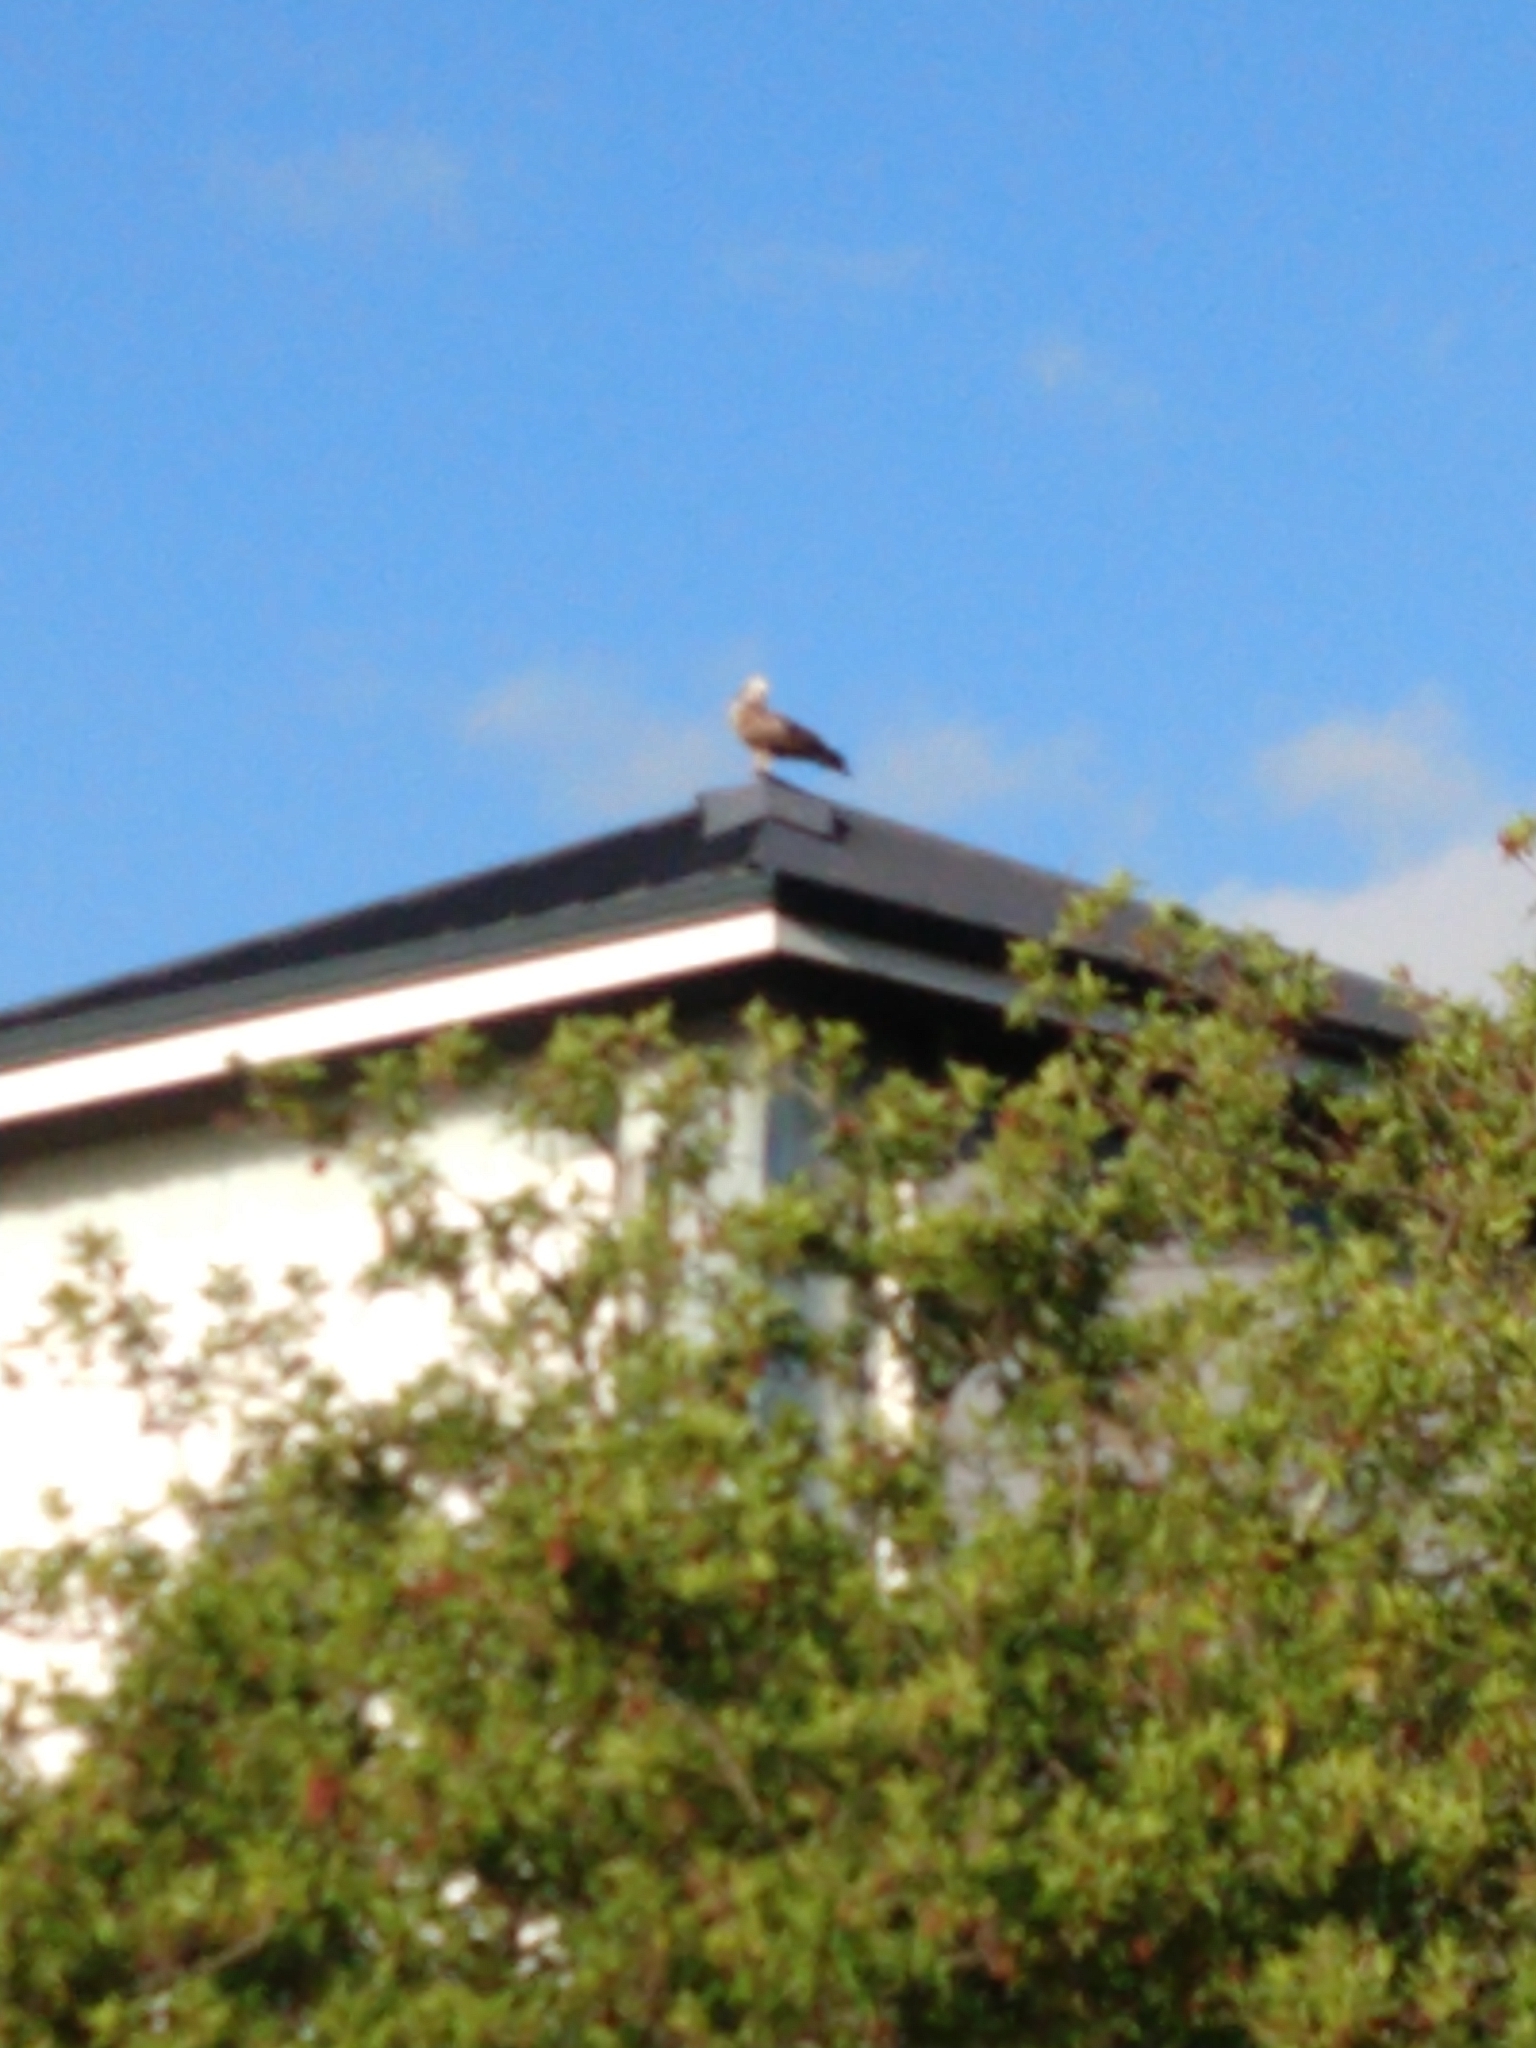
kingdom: Animalia
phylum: Chordata
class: Aves
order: Accipitriformes
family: Accipitridae
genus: Polyboroides
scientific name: Polyboroides typus
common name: African harrier-hawk
